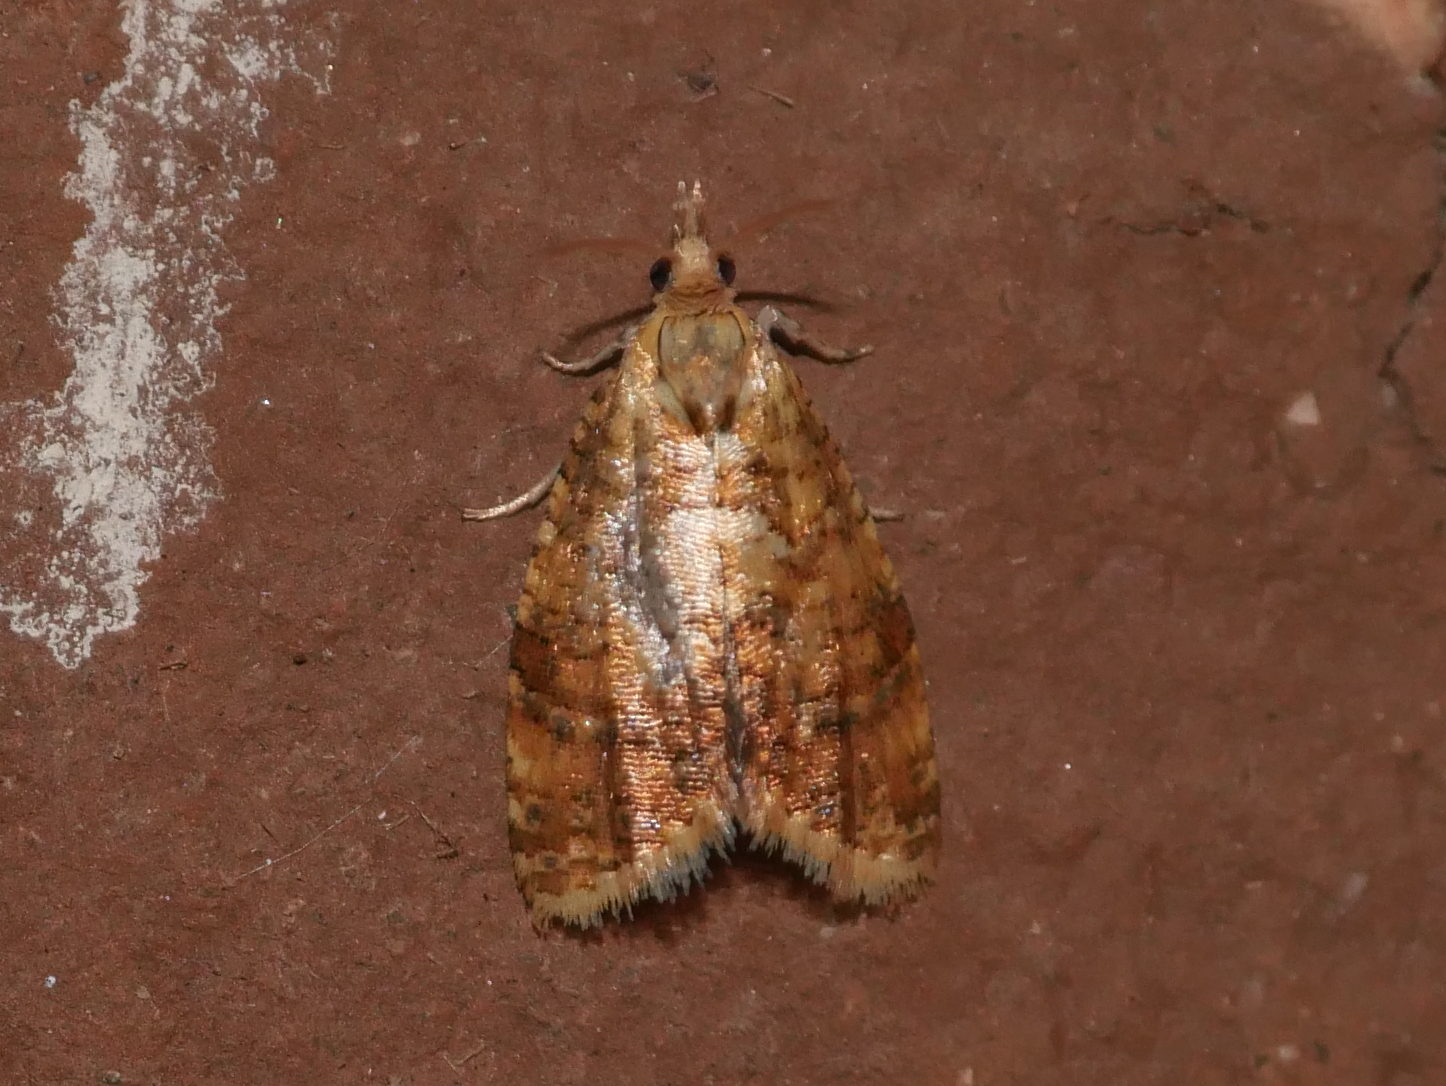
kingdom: Animalia
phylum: Arthropoda
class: Insecta
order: Lepidoptera
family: Tortricidae
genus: Pseudargyrotoza
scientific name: Pseudargyrotoza conwagana
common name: Yellow-spot twist
